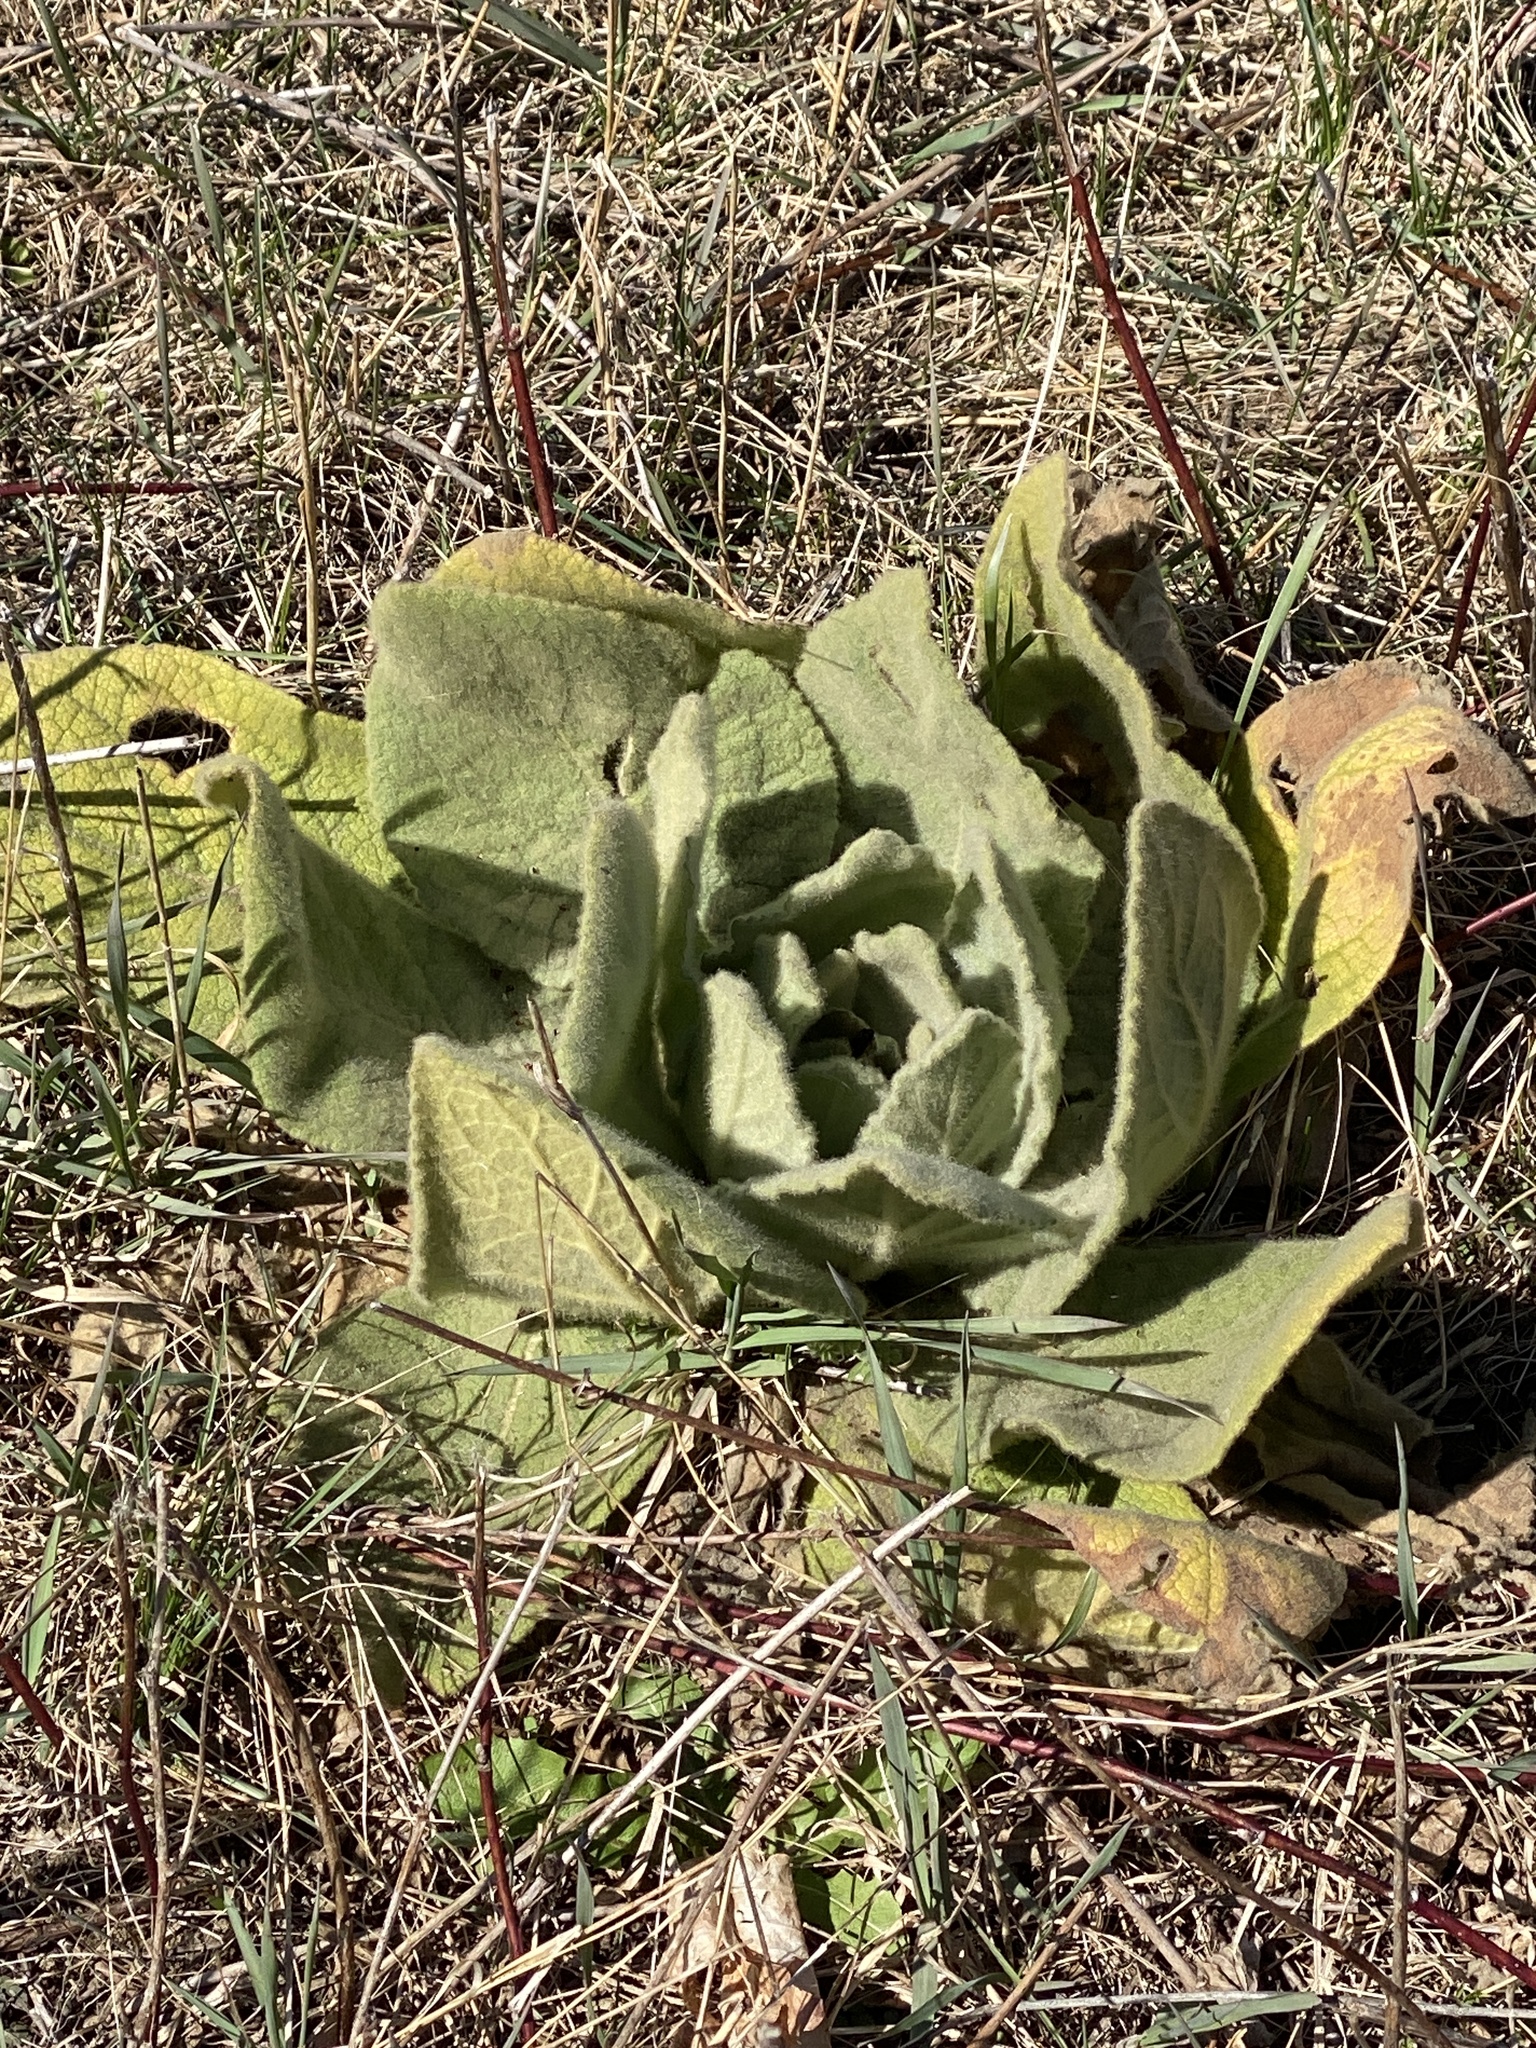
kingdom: Plantae
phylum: Tracheophyta
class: Magnoliopsida
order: Lamiales
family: Scrophulariaceae
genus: Verbascum
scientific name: Verbascum thapsus
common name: Common mullein
